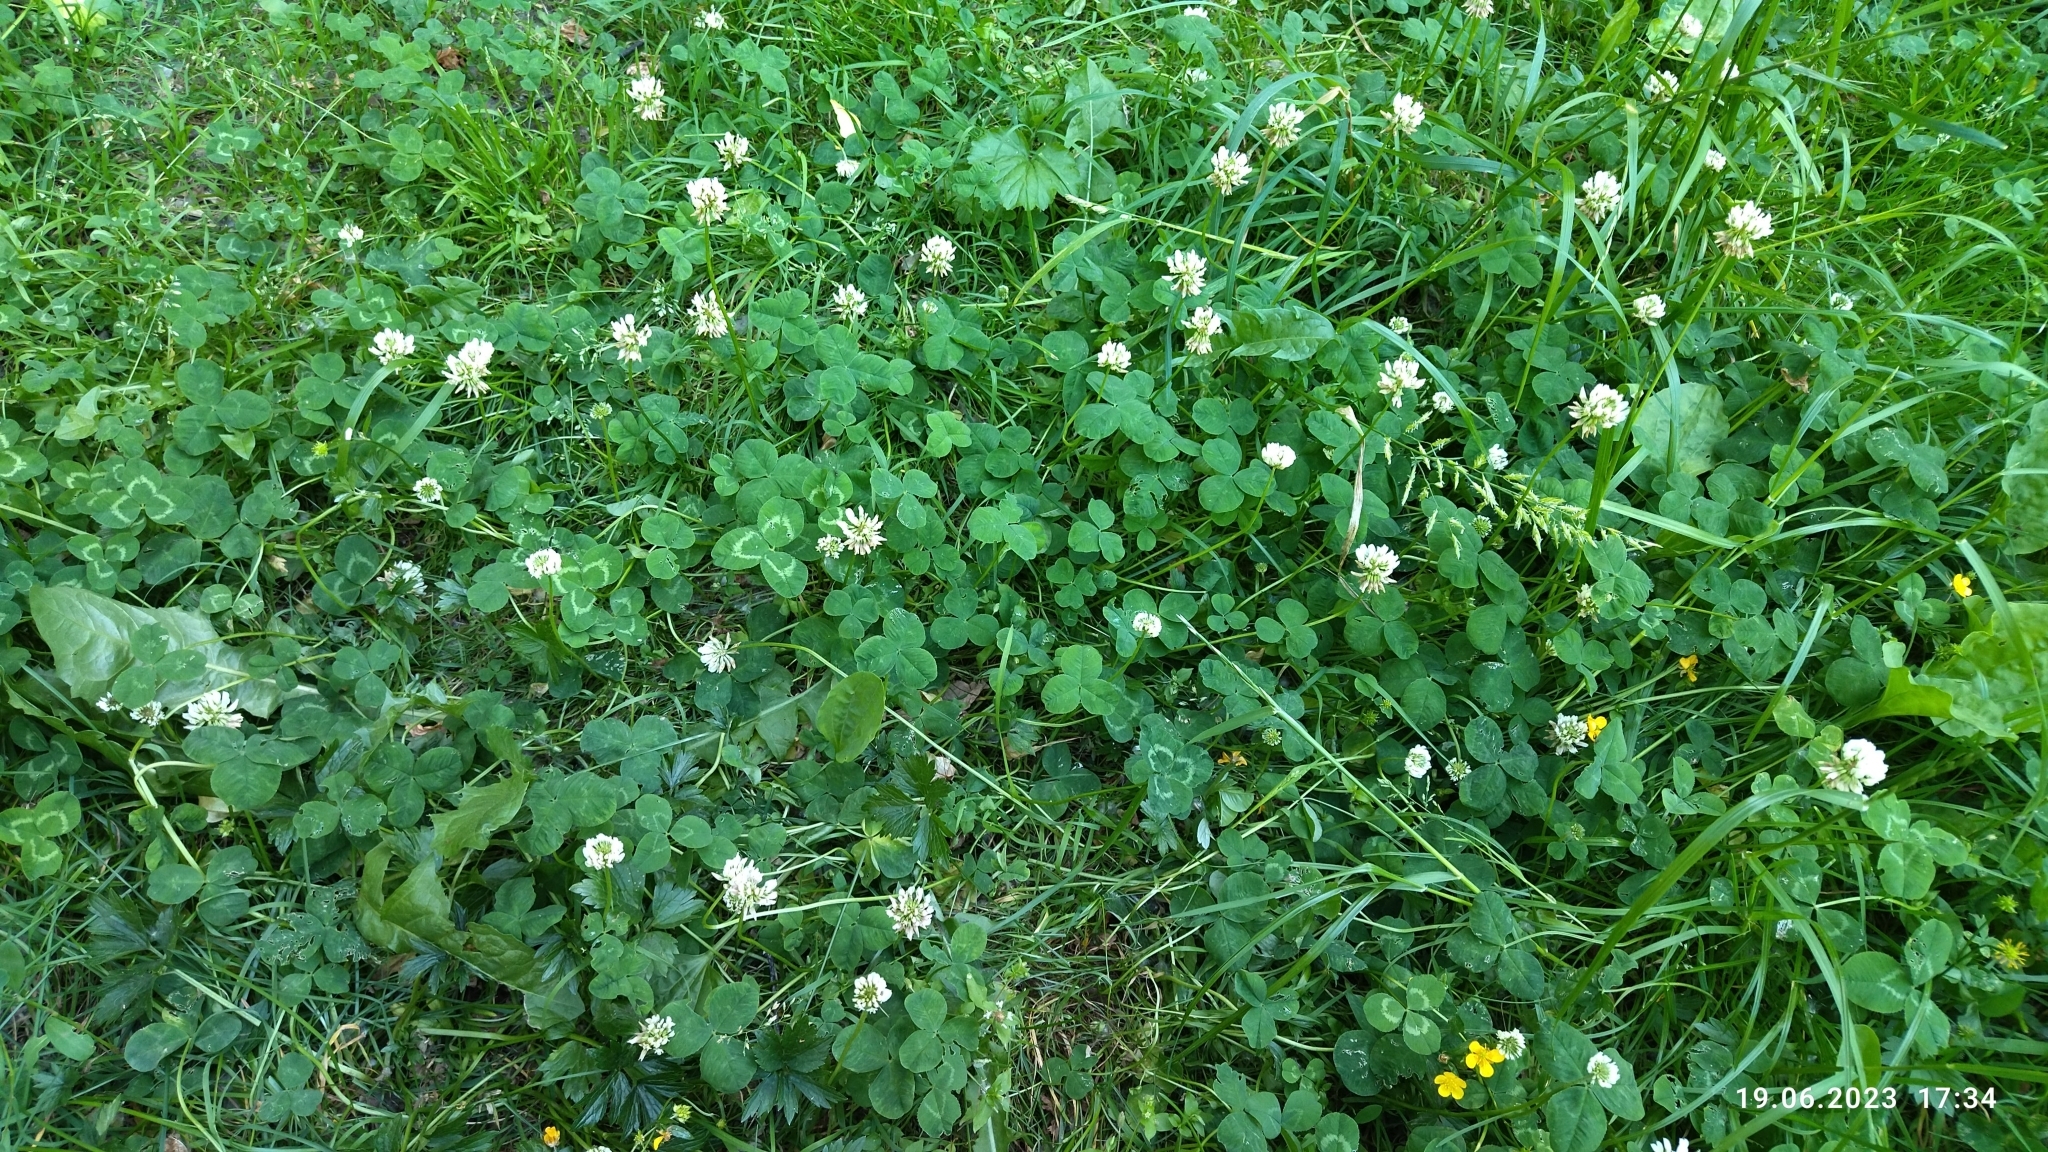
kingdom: Plantae
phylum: Tracheophyta
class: Magnoliopsida
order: Fabales
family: Fabaceae
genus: Trifolium
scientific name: Trifolium repens
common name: White clover
